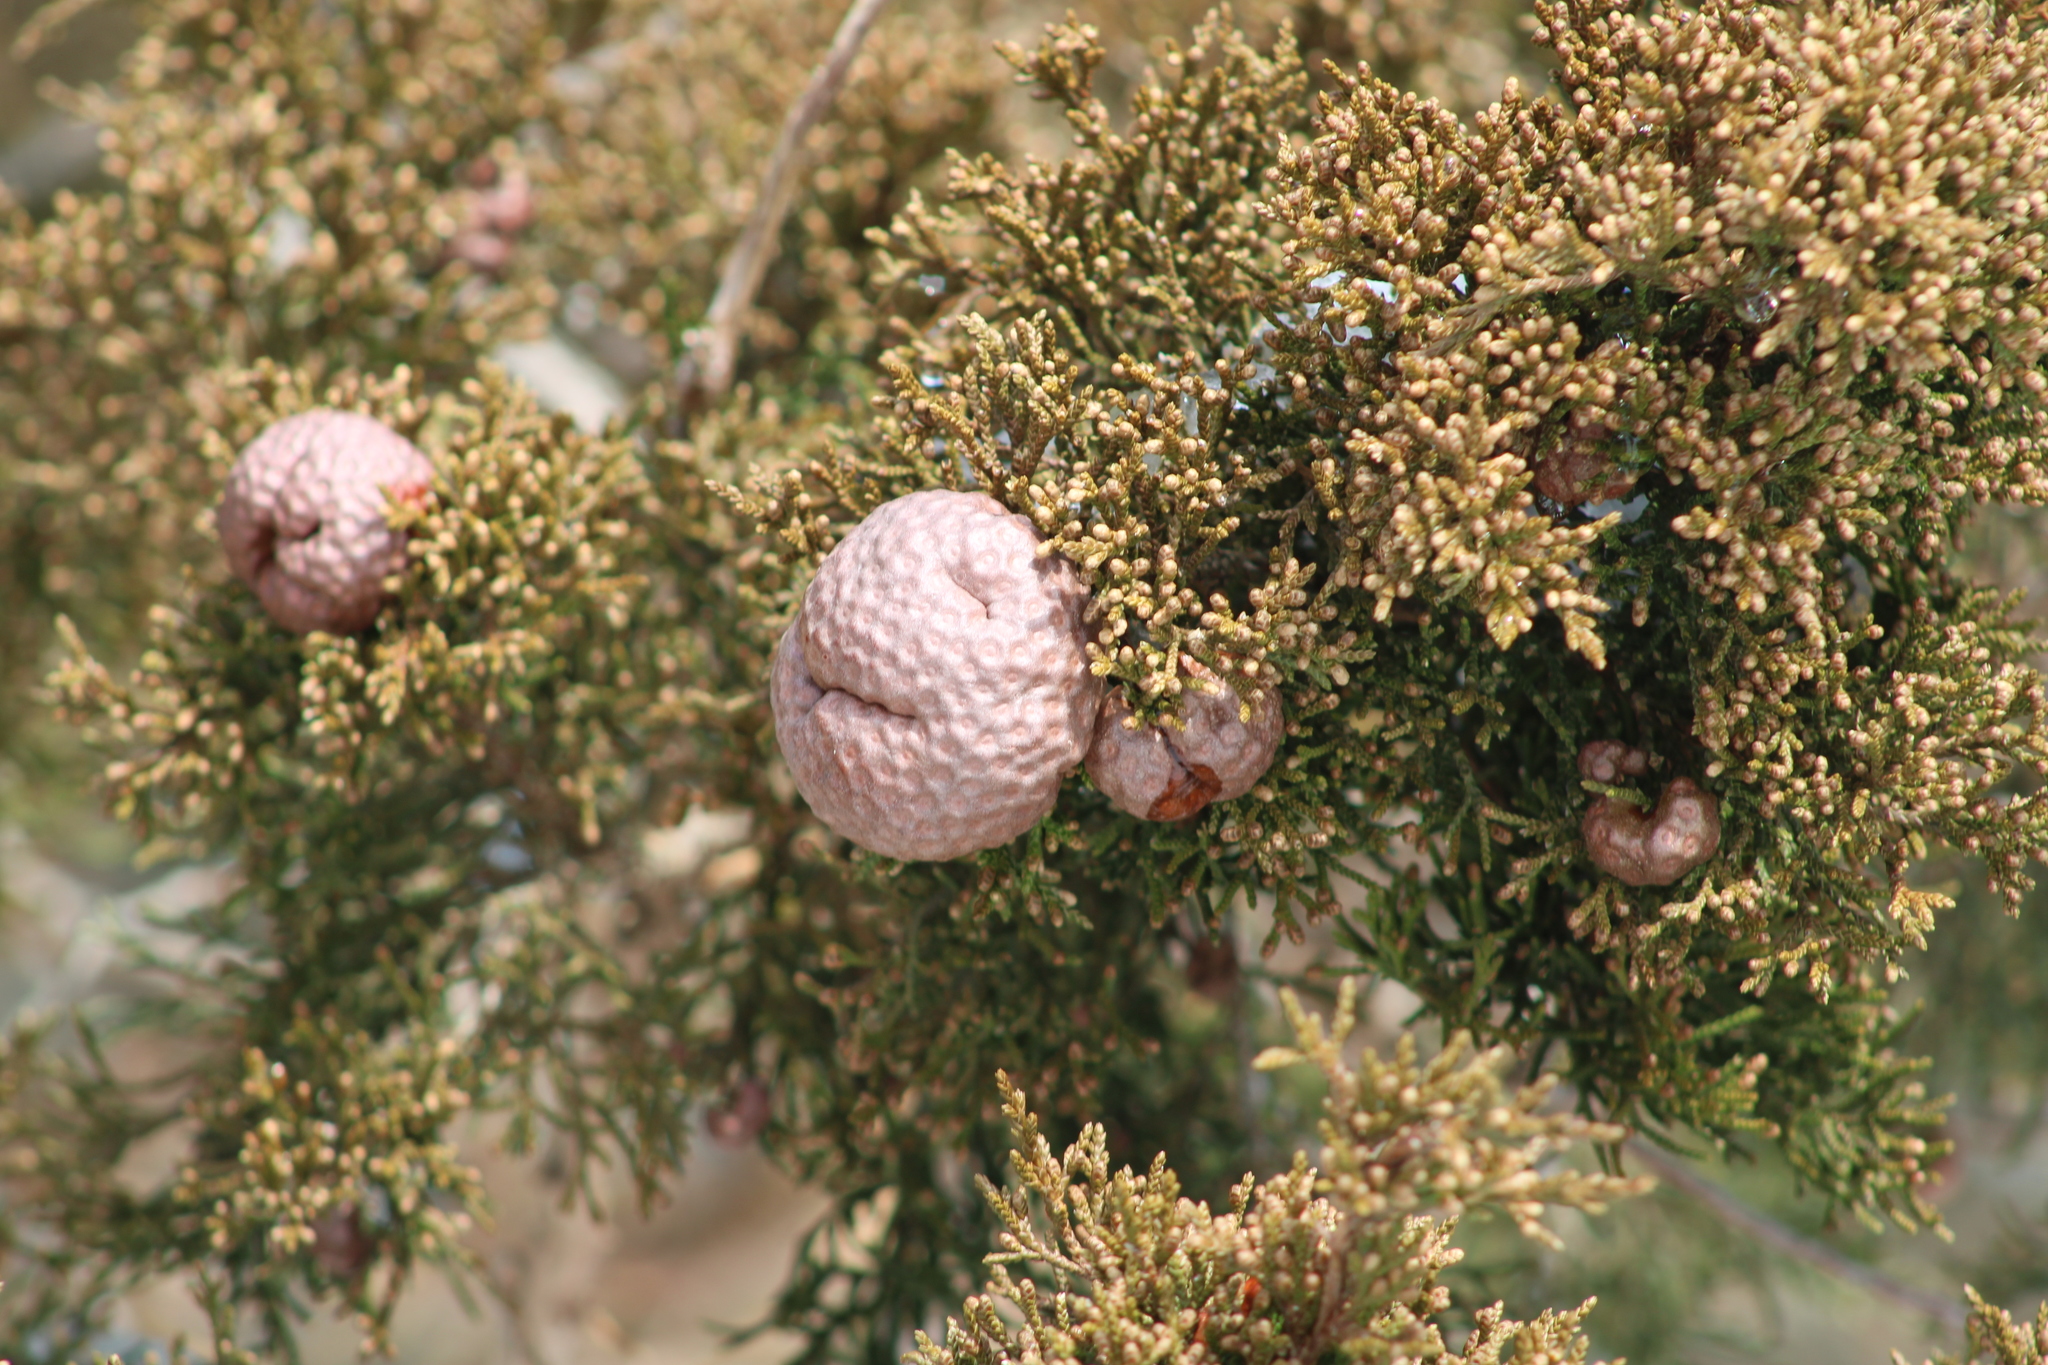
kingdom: Fungi
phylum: Basidiomycota
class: Pucciniomycetes
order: Pucciniales
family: Gymnosporangiaceae
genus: Gymnosporangium
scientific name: Gymnosporangium juniperi-virginianae
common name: Juniper-apple rust
